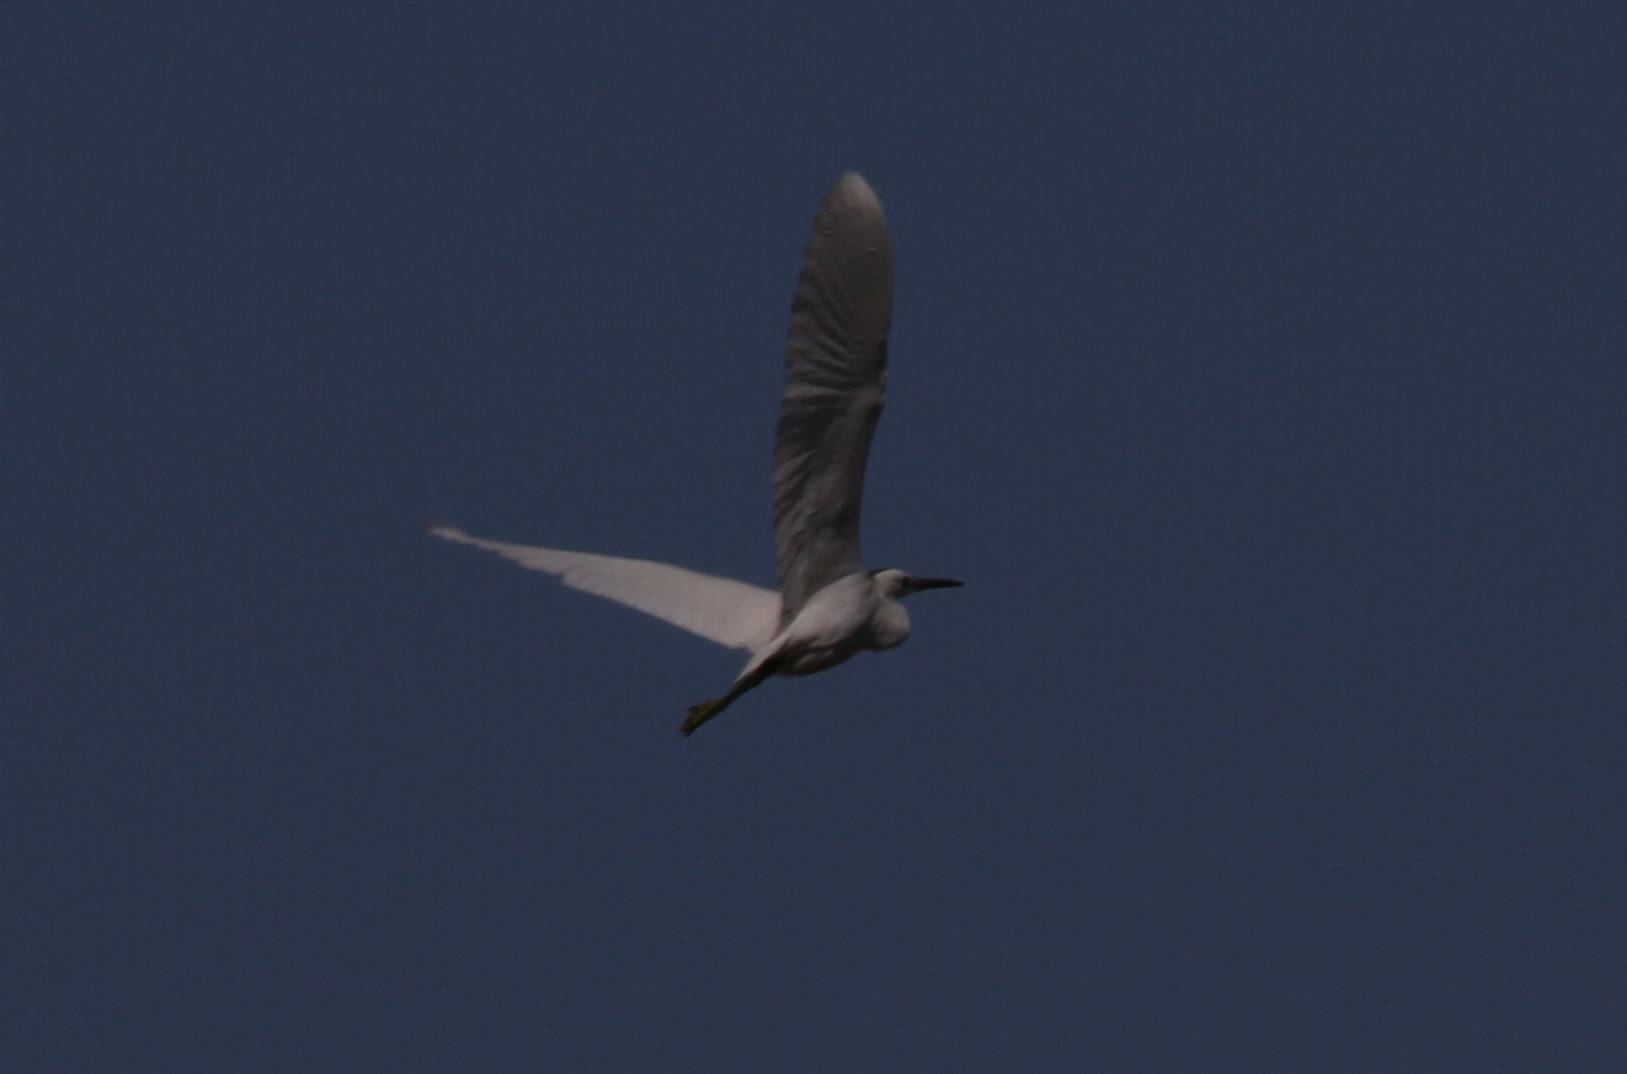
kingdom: Animalia
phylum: Chordata
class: Aves
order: Pelecaniformes
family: Ardeidae
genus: Egretta
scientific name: Egretta garzetta
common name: Little egret
